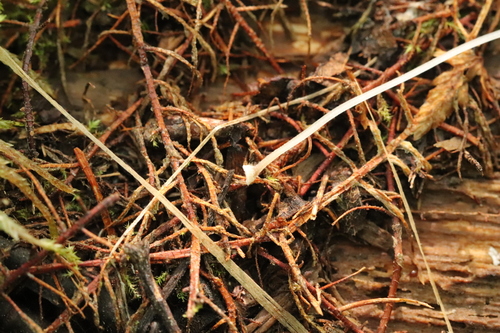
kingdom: Fungi
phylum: Basidiomycota
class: Agaricomycetes
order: Agaricales
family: Mycenaceae
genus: Mycena
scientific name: Mycena stylobates
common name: Bulbous bonnet
